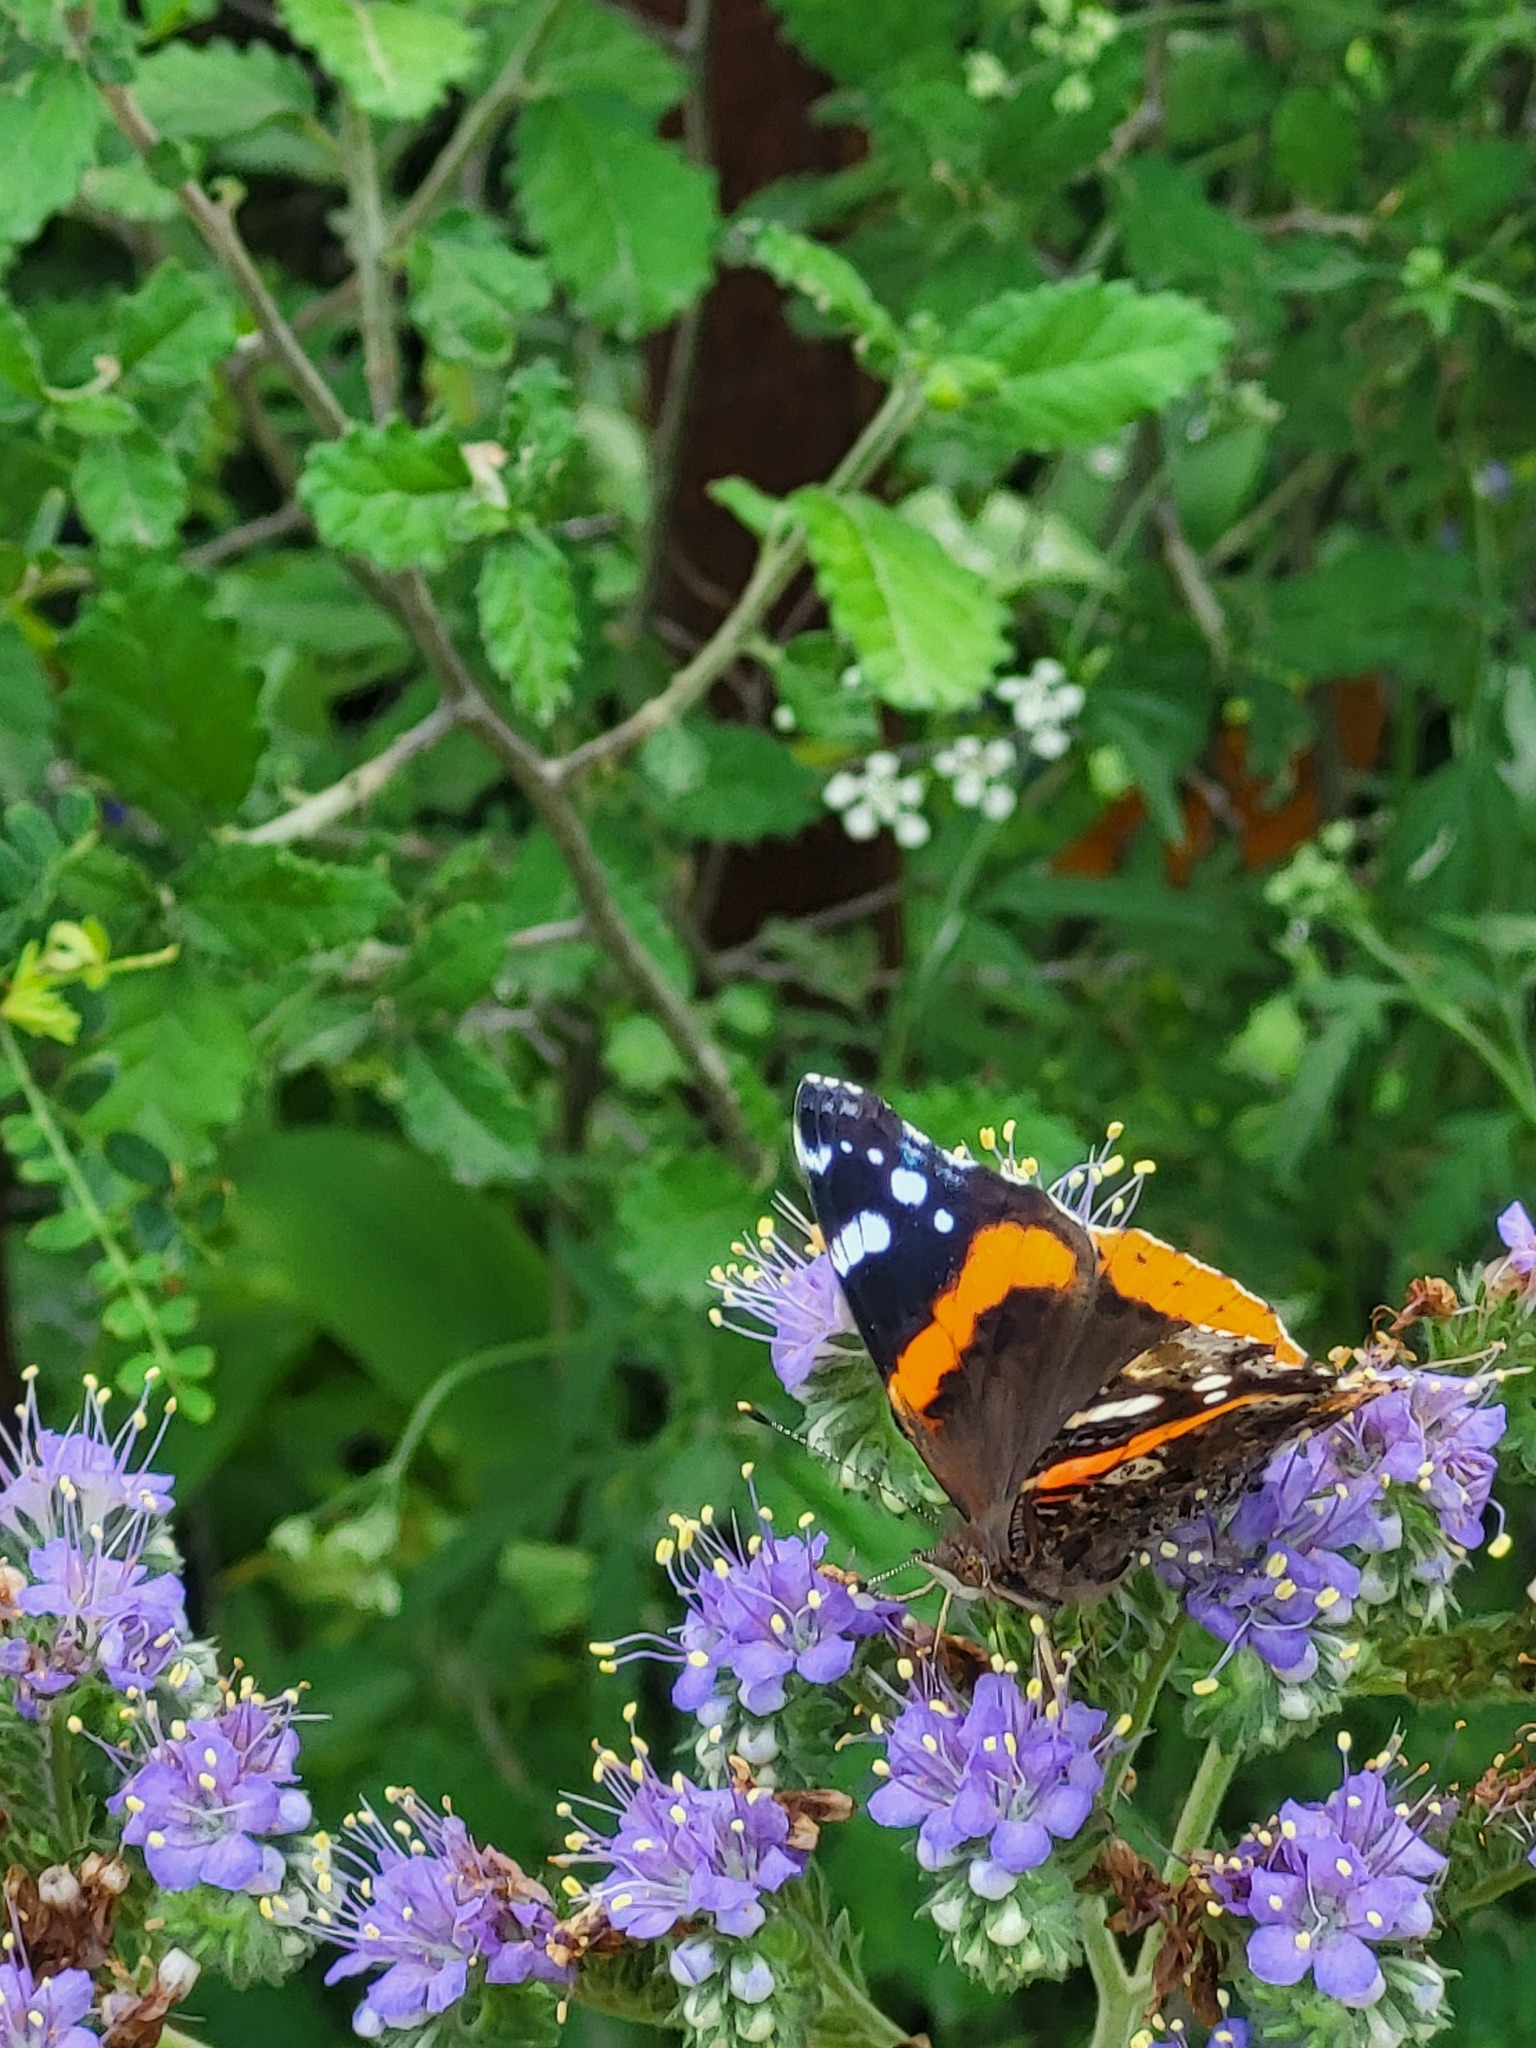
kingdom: Animalia
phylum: Arthropoda
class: Insecta
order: Lepidoptera
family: Nymphalidae
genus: Vanessa
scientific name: Vanessa atalanta
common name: Red admiral
